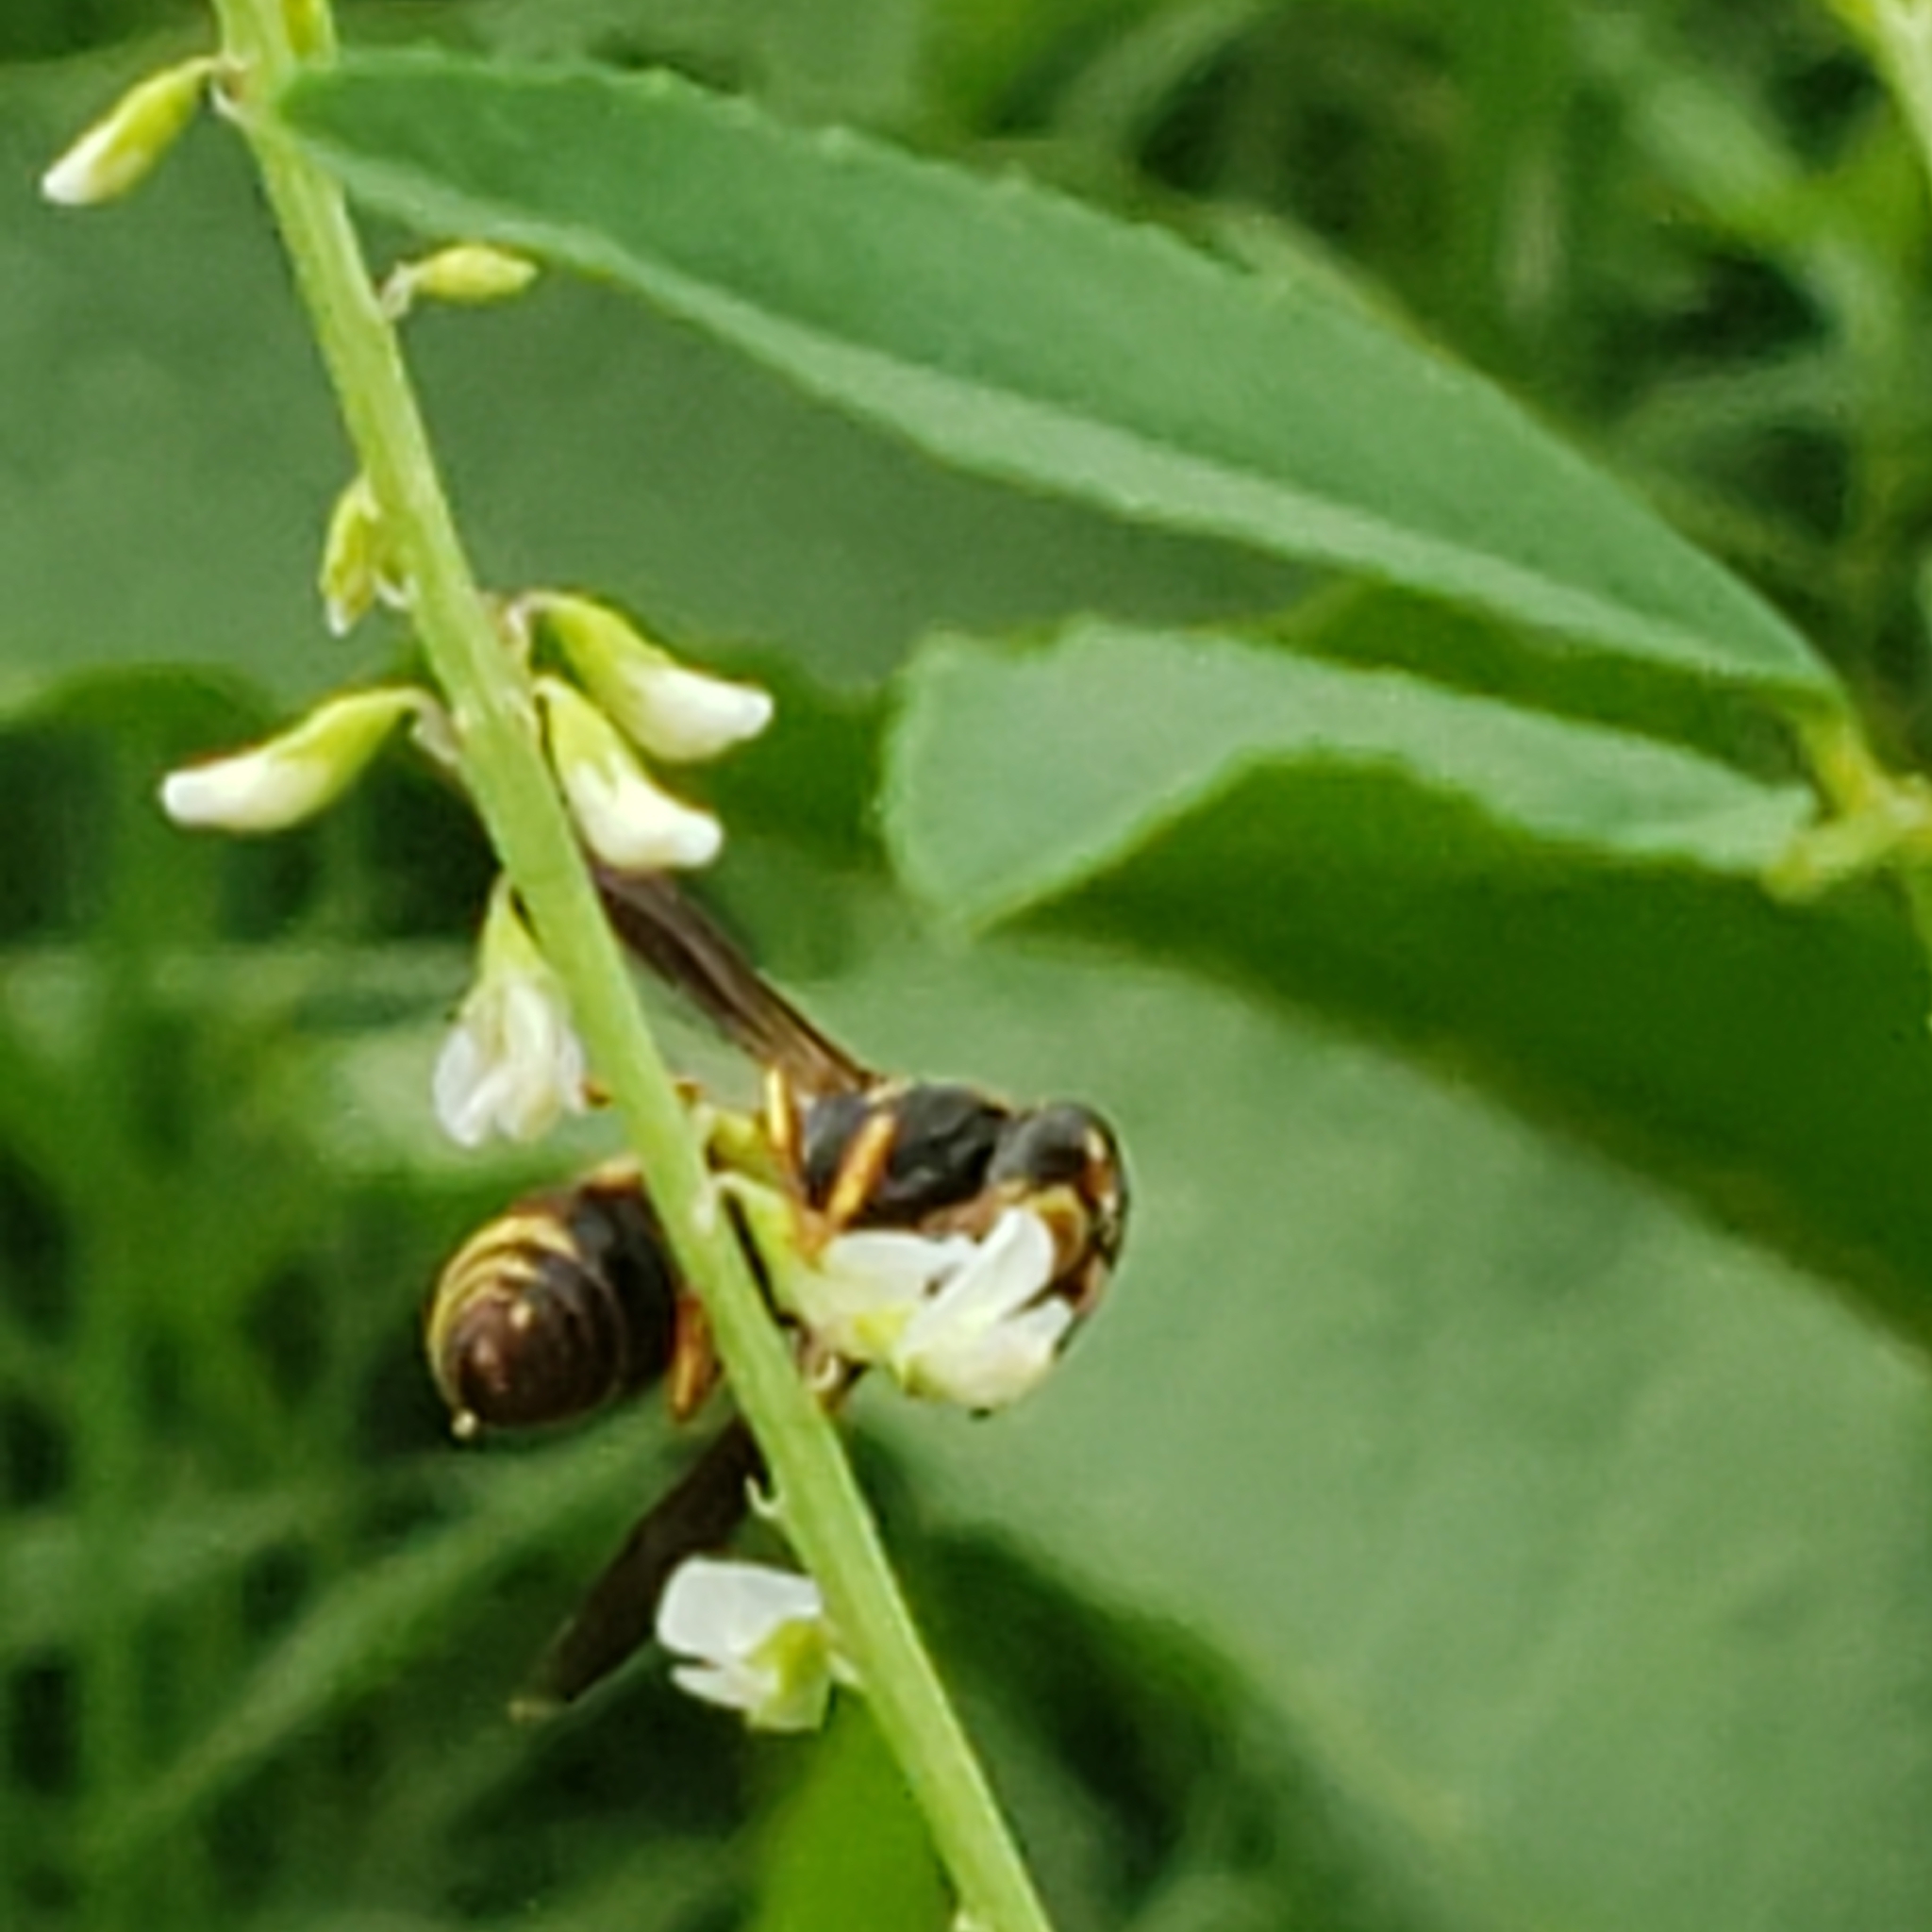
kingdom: Animalia
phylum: Arthropoda
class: Insecta
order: Hymenoptera
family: Eumenidae
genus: Euodynerus
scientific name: Euodynerus hidalgo
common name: Wasp
